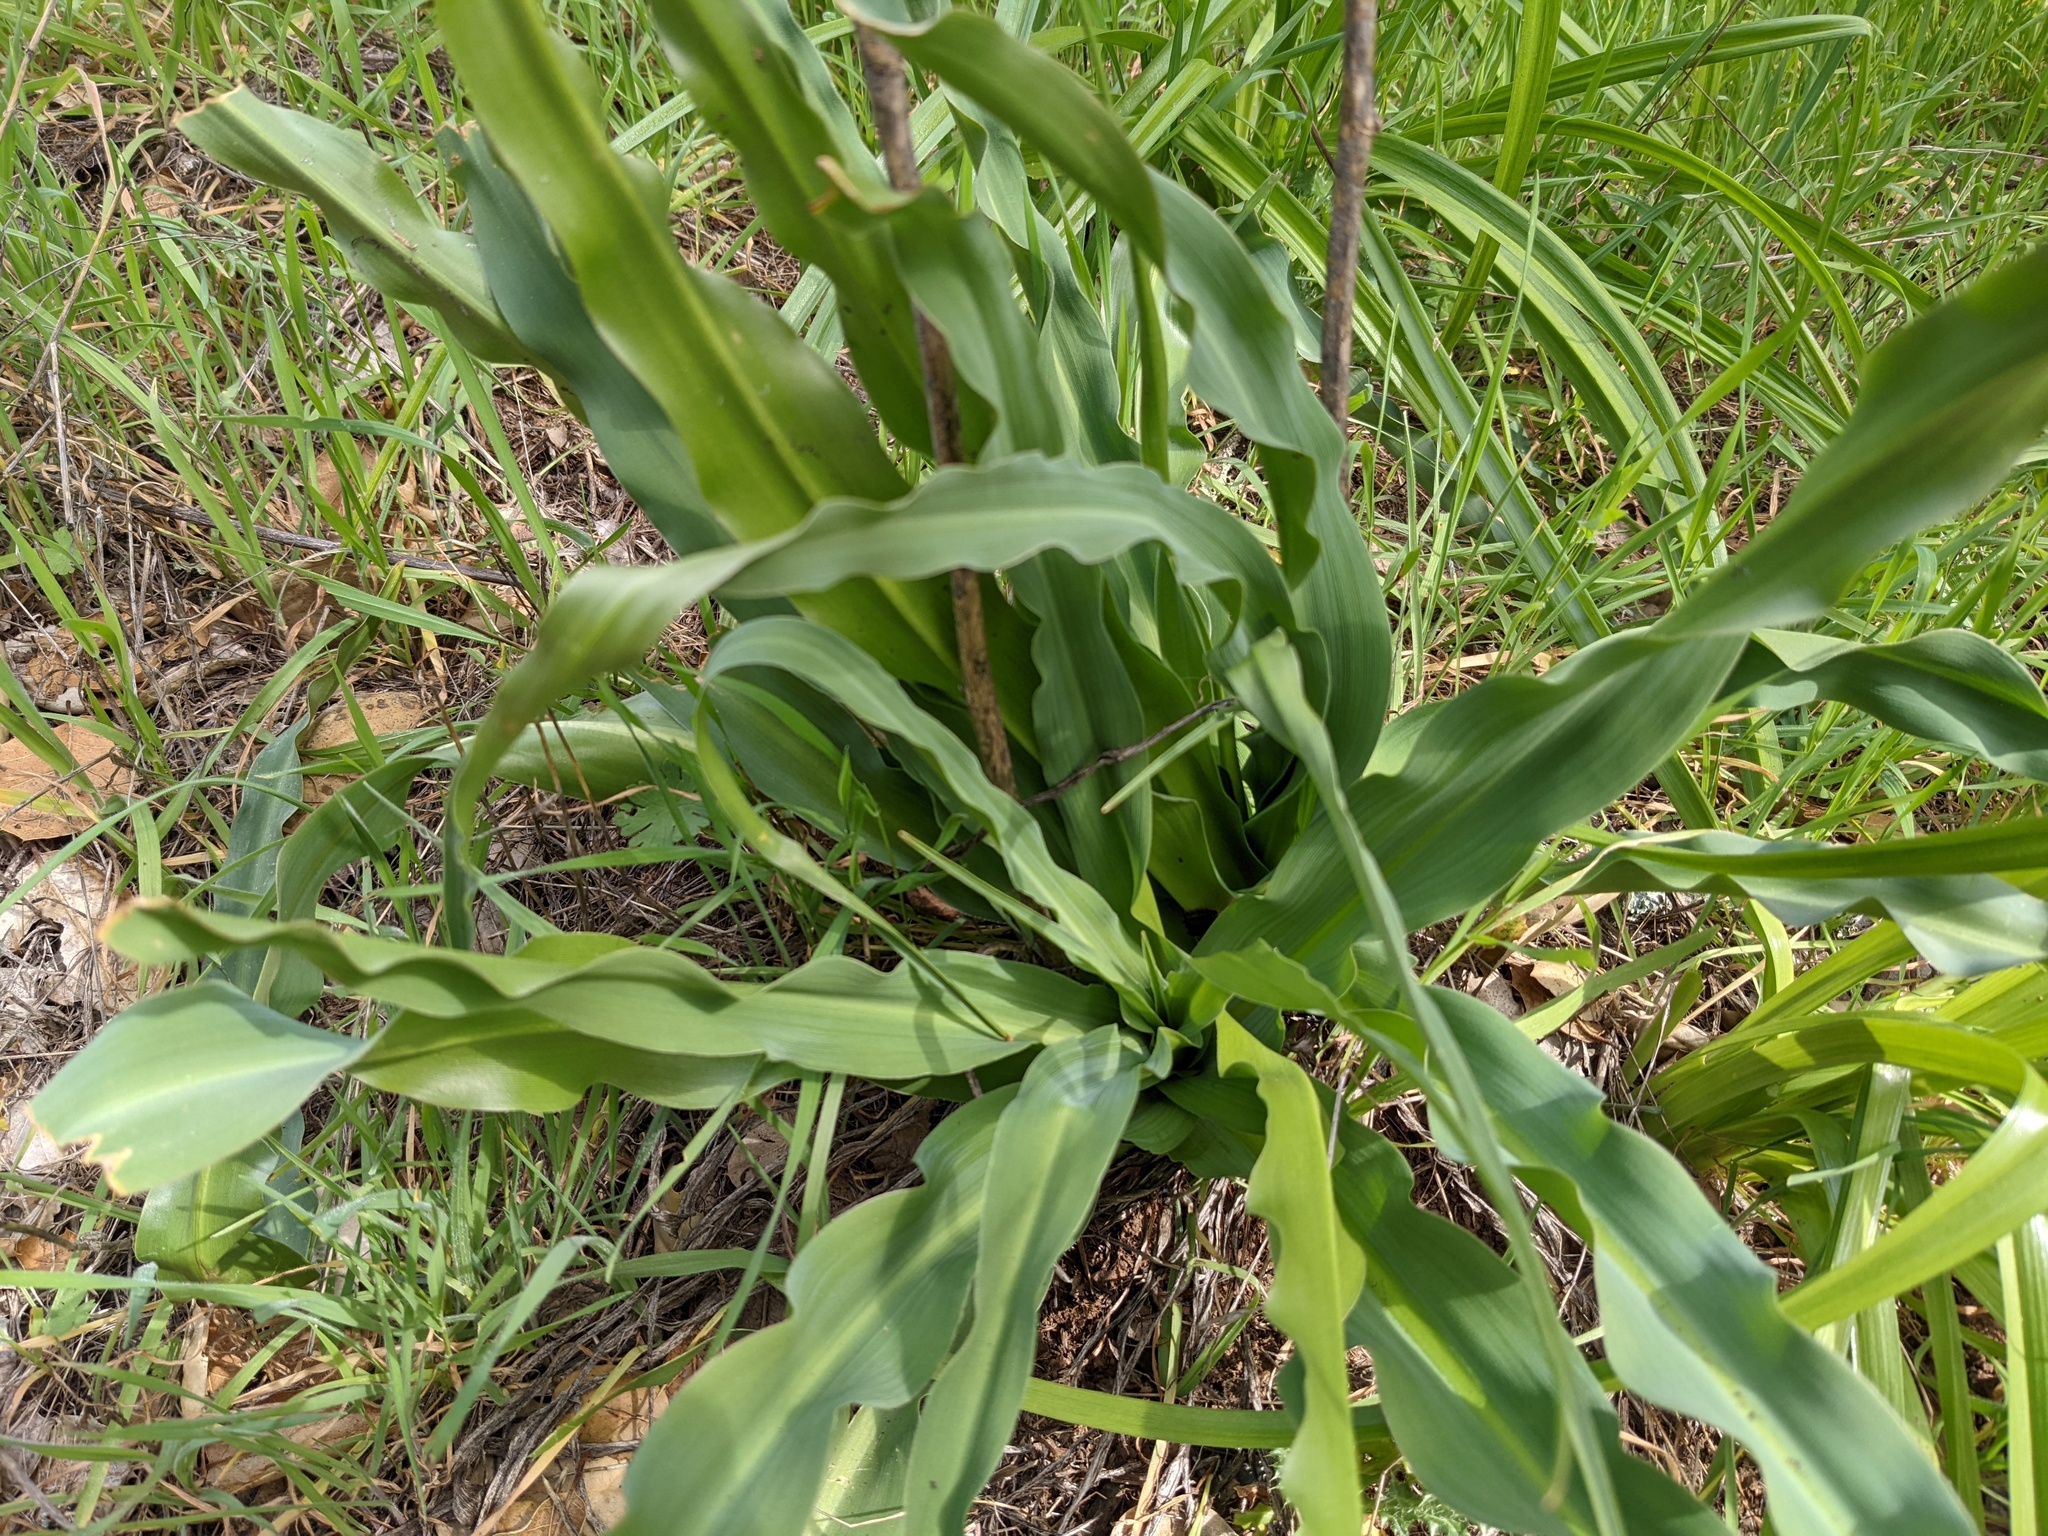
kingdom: Plantae
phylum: Tracheophyta
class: Liliopsida
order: Asparagales
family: Asparagaceae
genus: Chlorogalum
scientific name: Chlorogalum pomeridianum
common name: Amole
